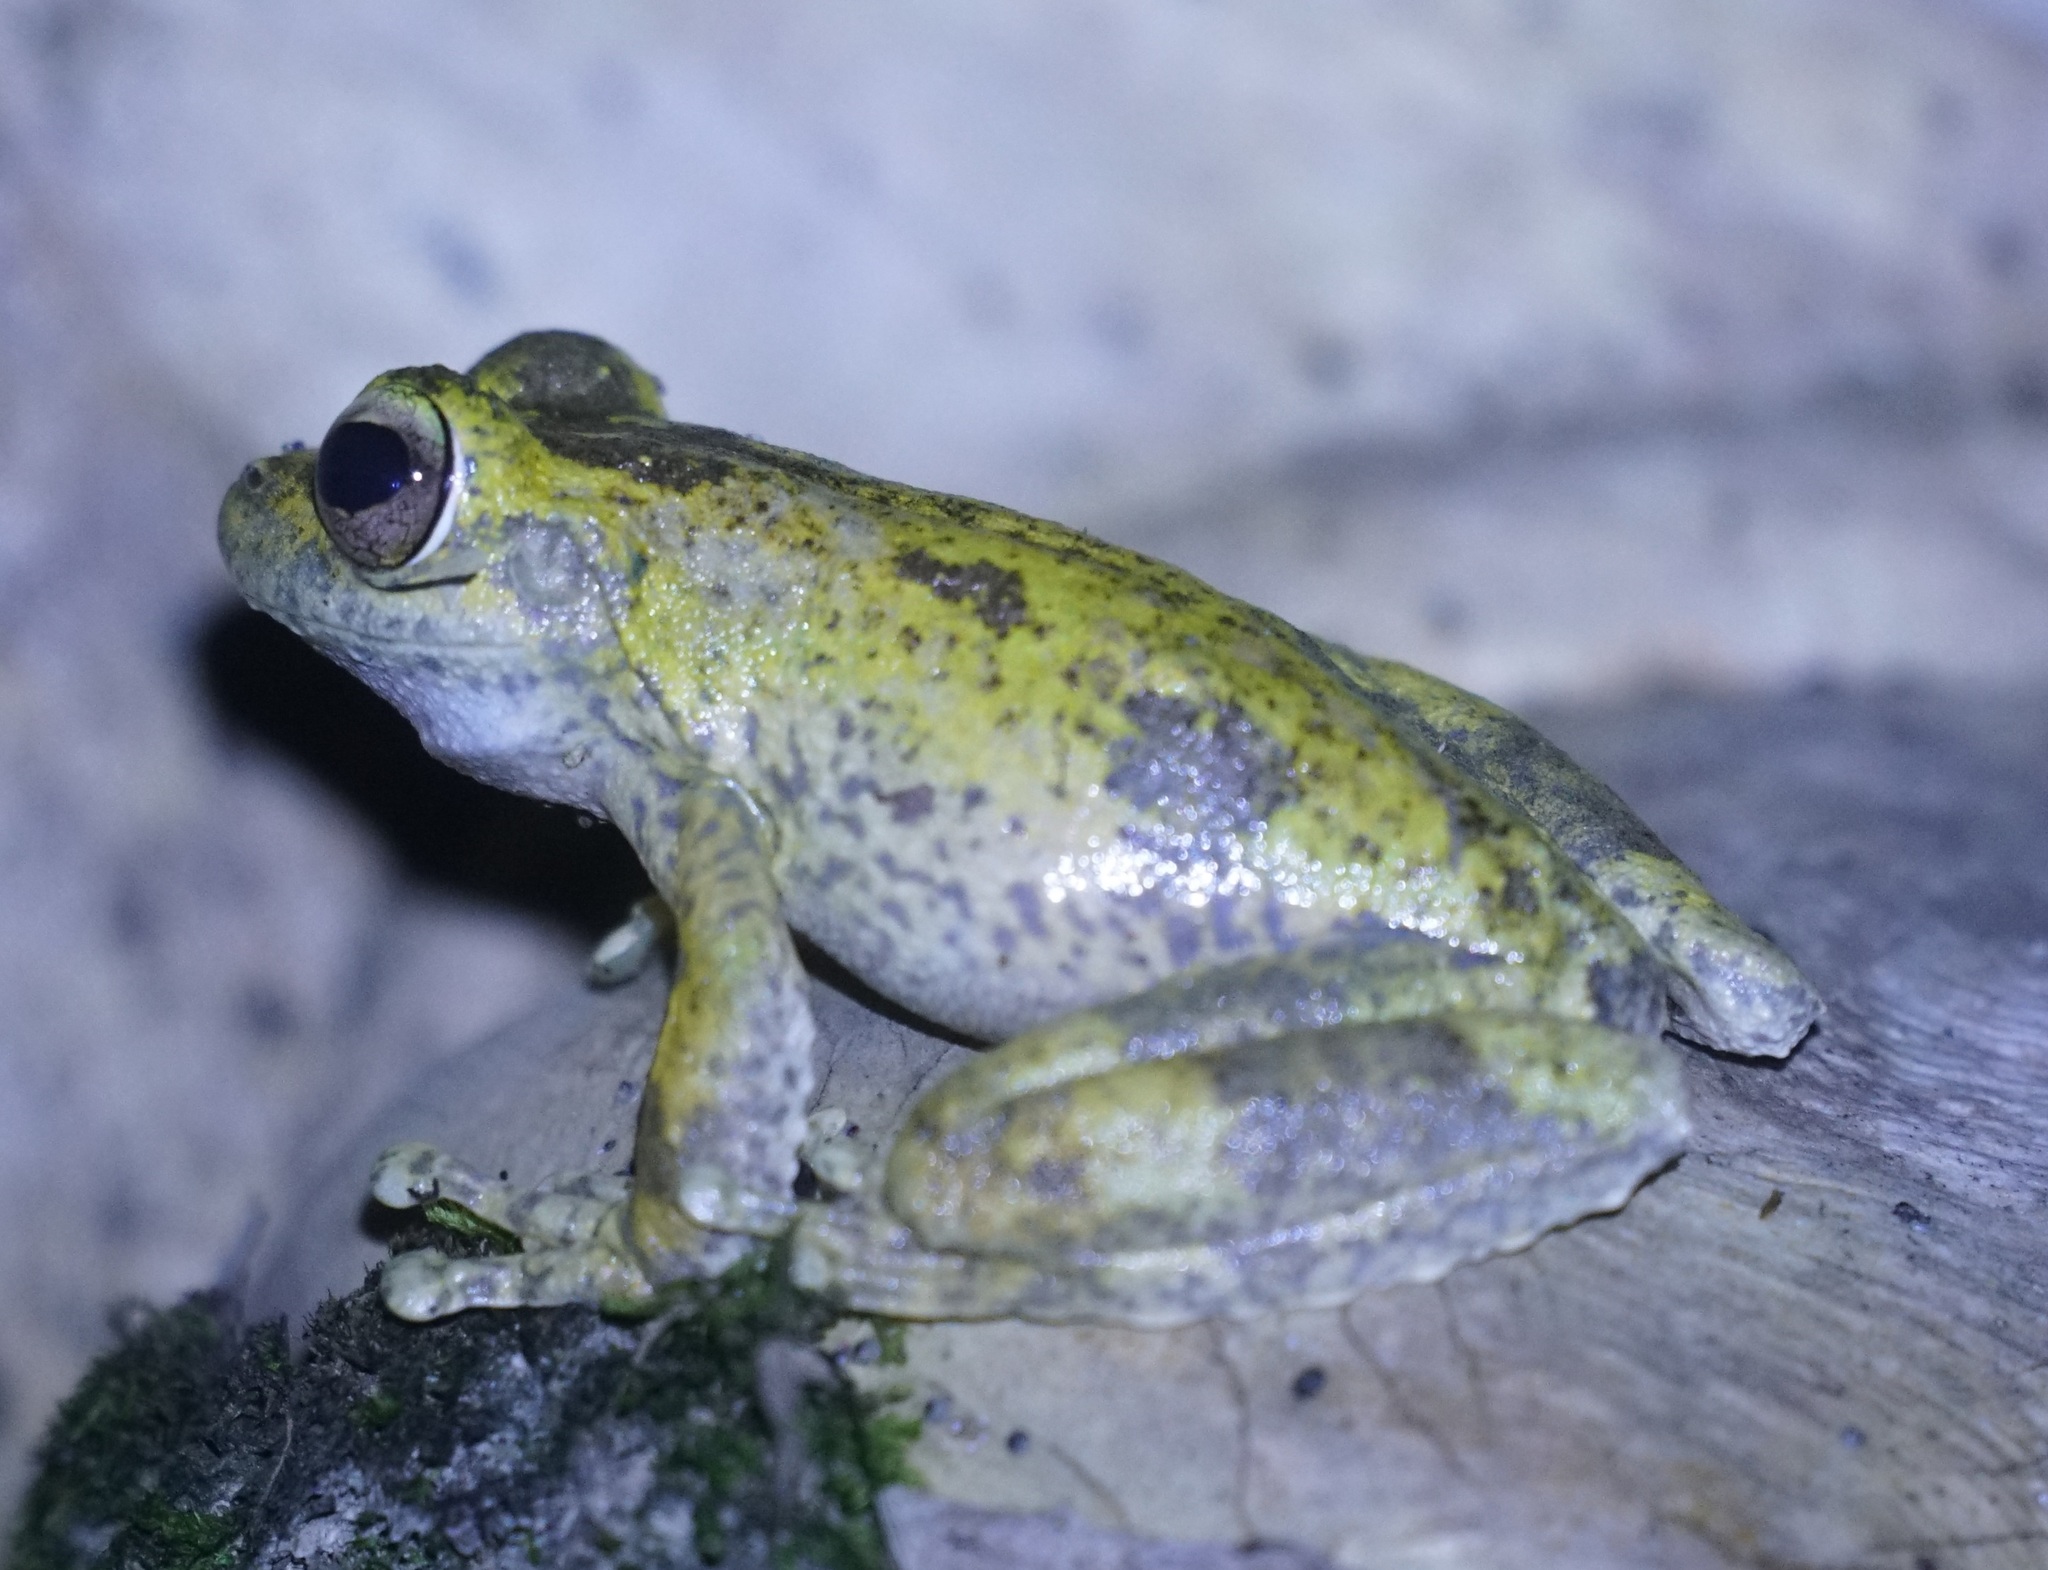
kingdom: Animalia
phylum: Chordata
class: Amphibia
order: Anura
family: Pelodryadidae
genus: Ranoidea
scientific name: Ranoidea myola
